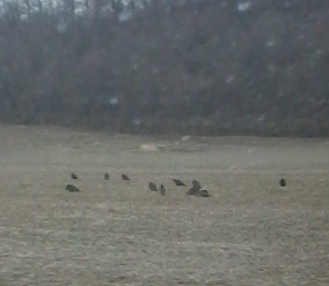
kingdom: Animalia
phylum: Chordata
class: Aves
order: Accipitriformes
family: Cathartidae
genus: Cathartes
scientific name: Cathartes aura
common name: Turkey vulture
